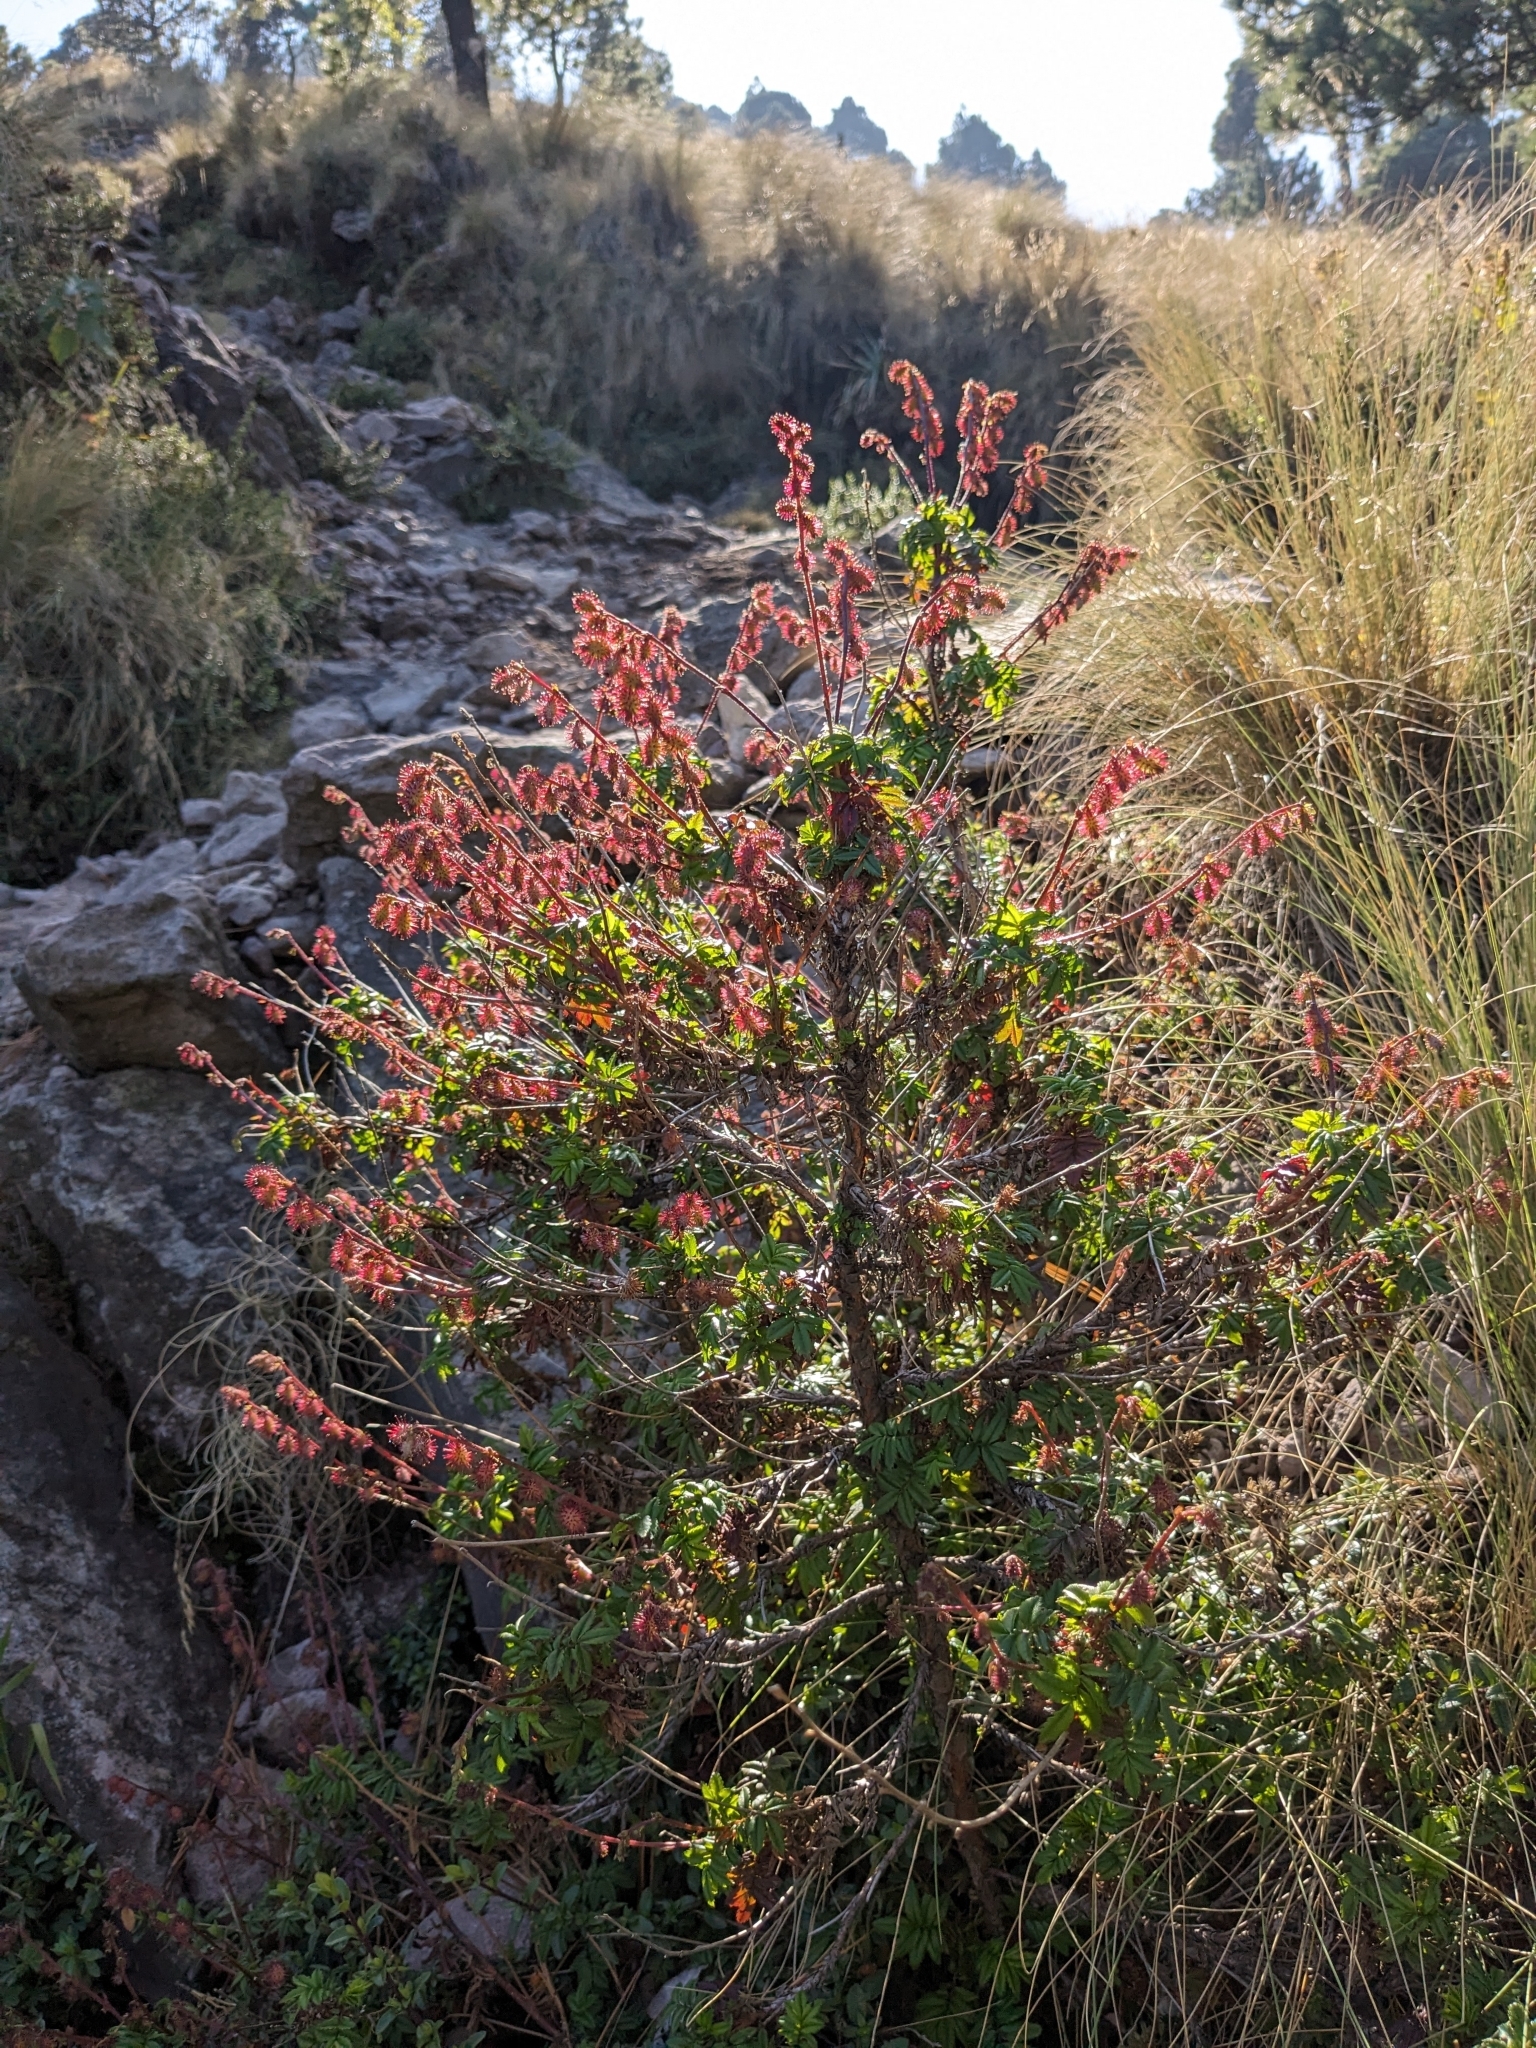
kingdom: Plantae
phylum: Tracheophyta
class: Magnoliopsida
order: Rosales
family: Rosaceae
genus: Acaena
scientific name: Acaena elongata
